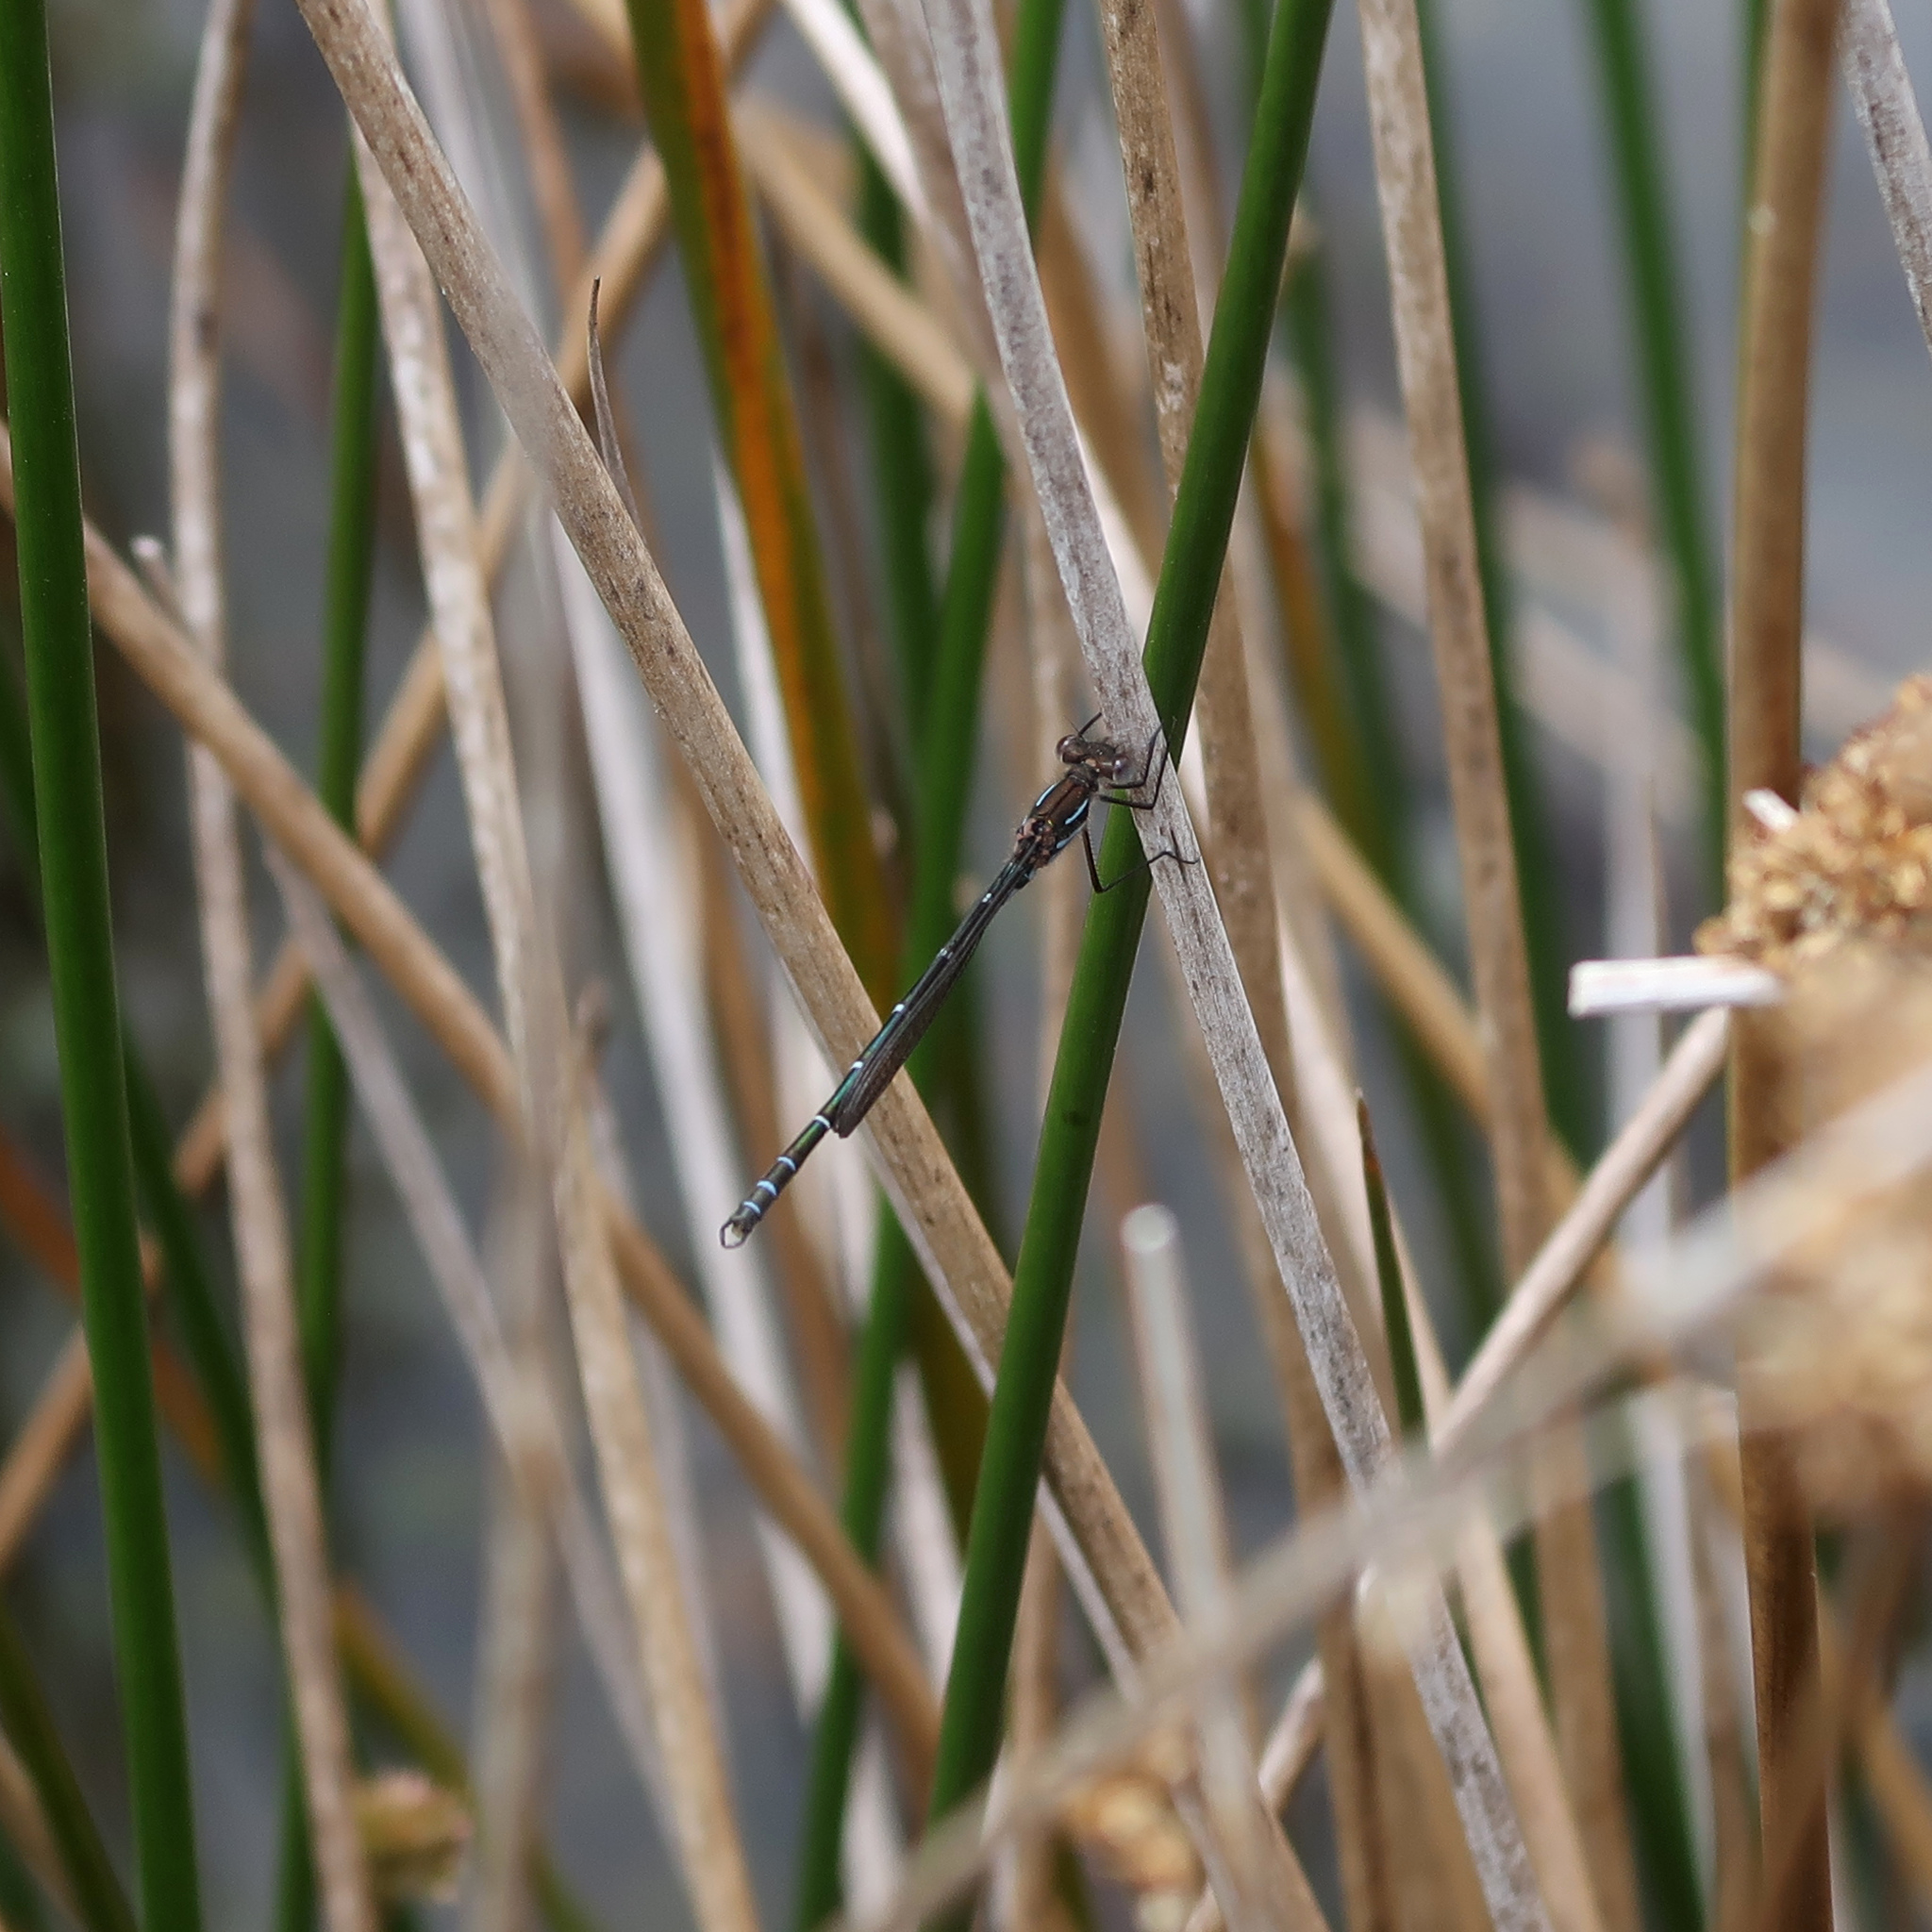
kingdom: Animalia
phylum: Arthropoda
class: Insecta
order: Odonata
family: Lestidae
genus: Austrolestes
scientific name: Austrolestes psyche
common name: Cup ringtail
